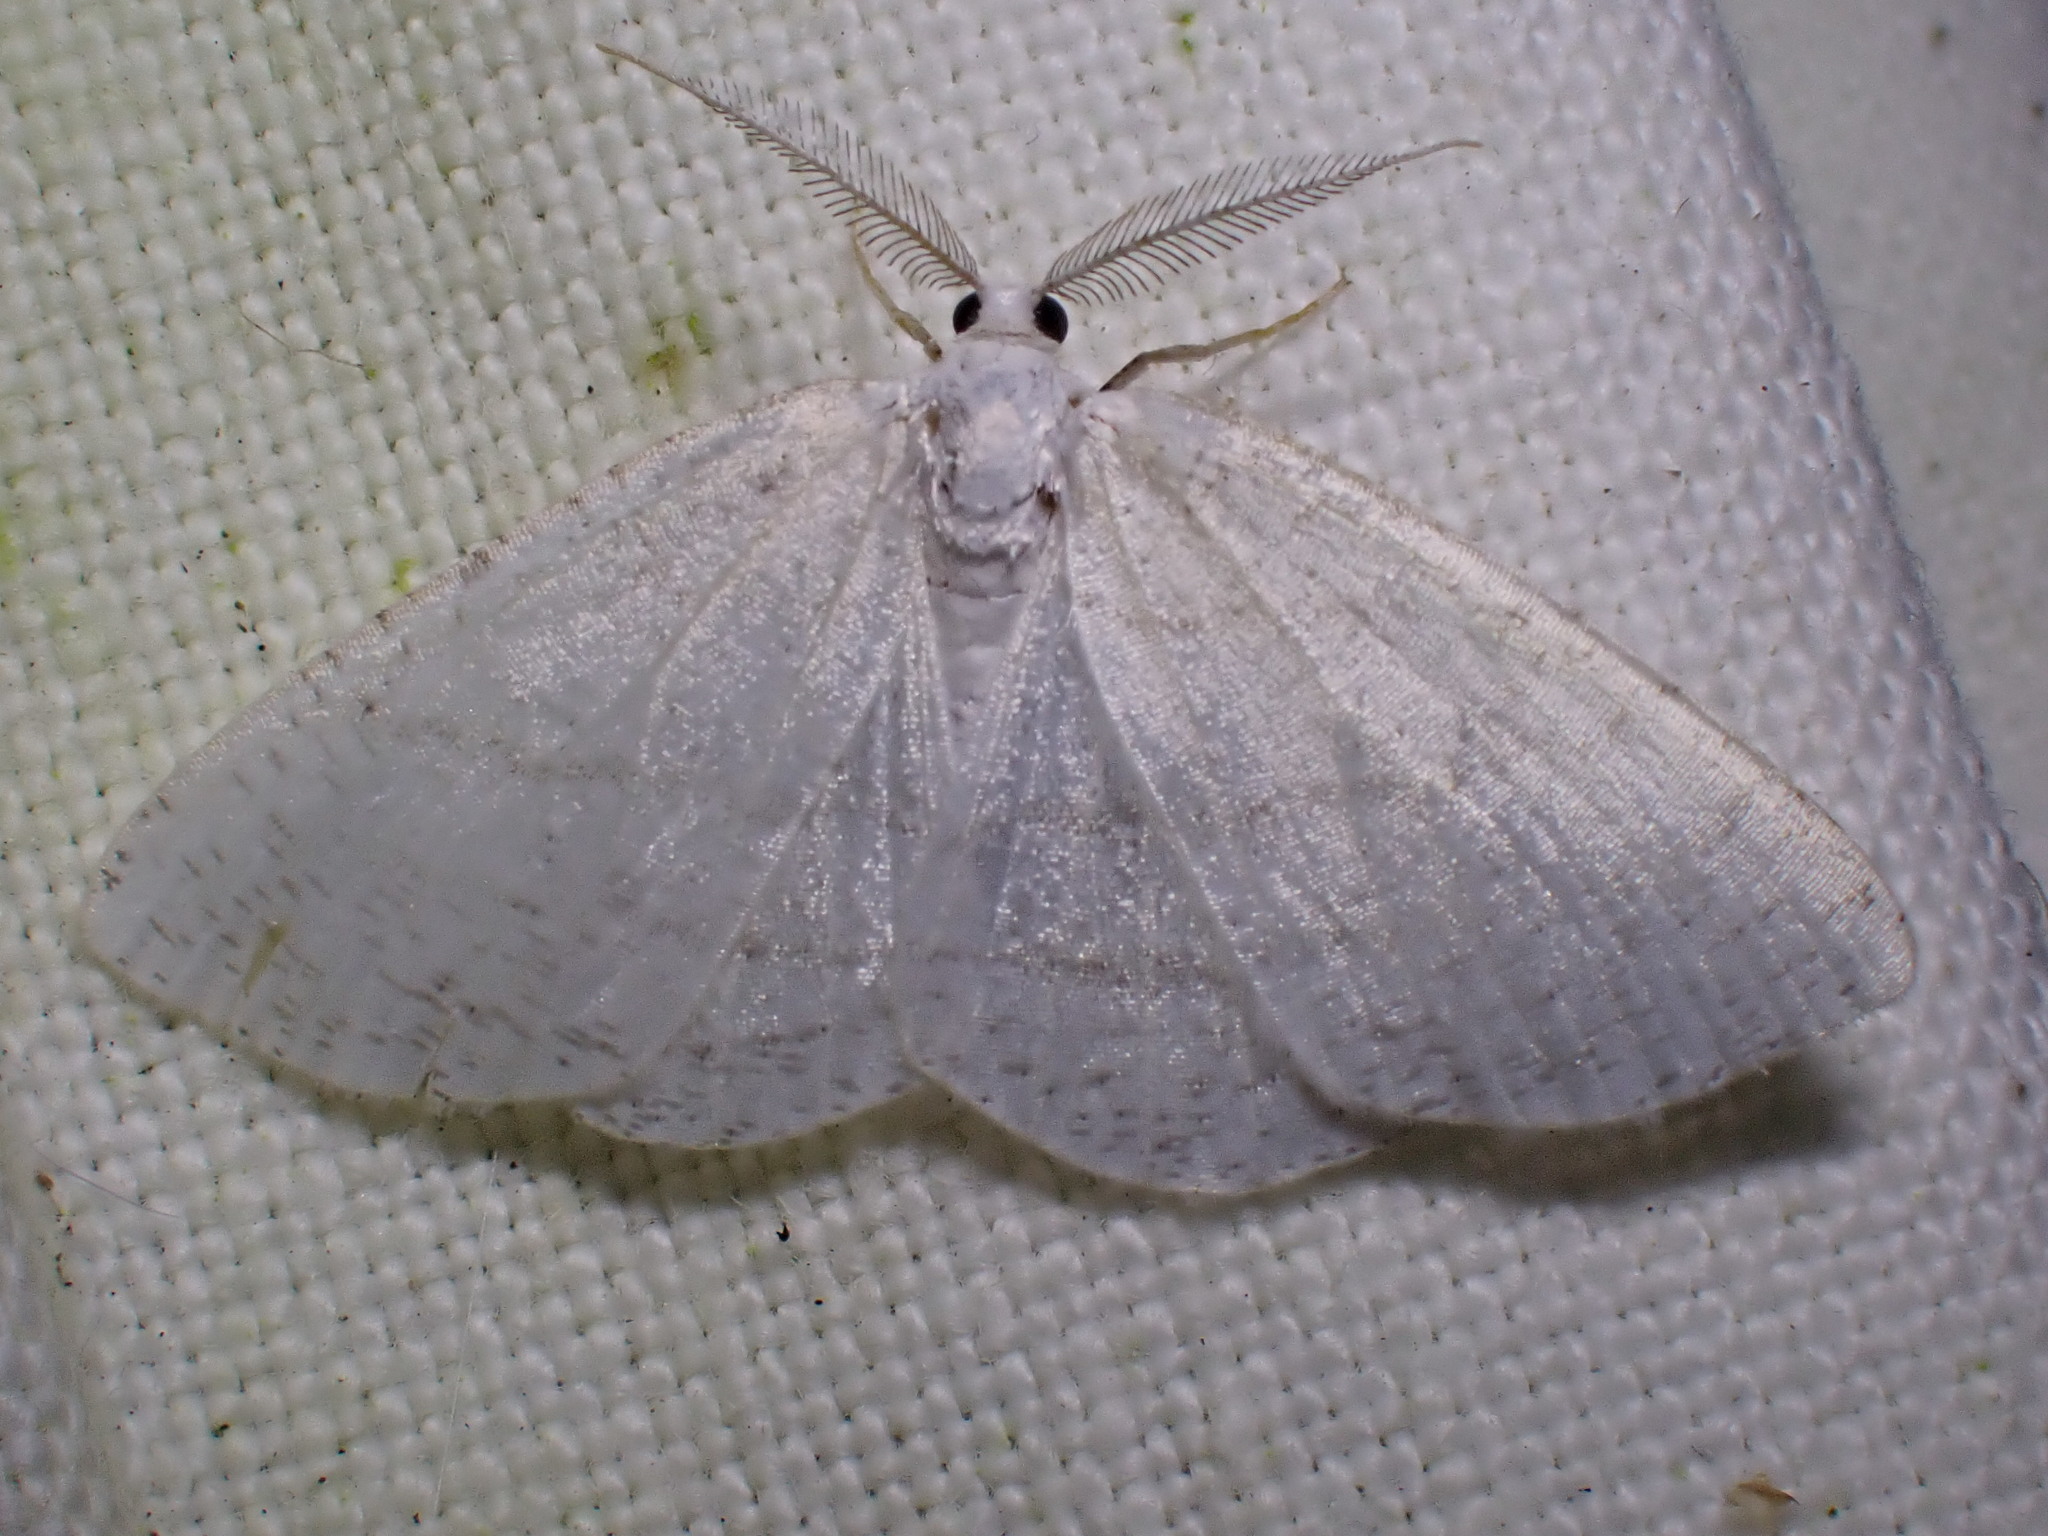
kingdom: Animalia
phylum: Arthropoda
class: Insecta
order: Lepidoptera
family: Geometridae
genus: Cabera
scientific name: Cabera pusaria
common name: Common white wave
